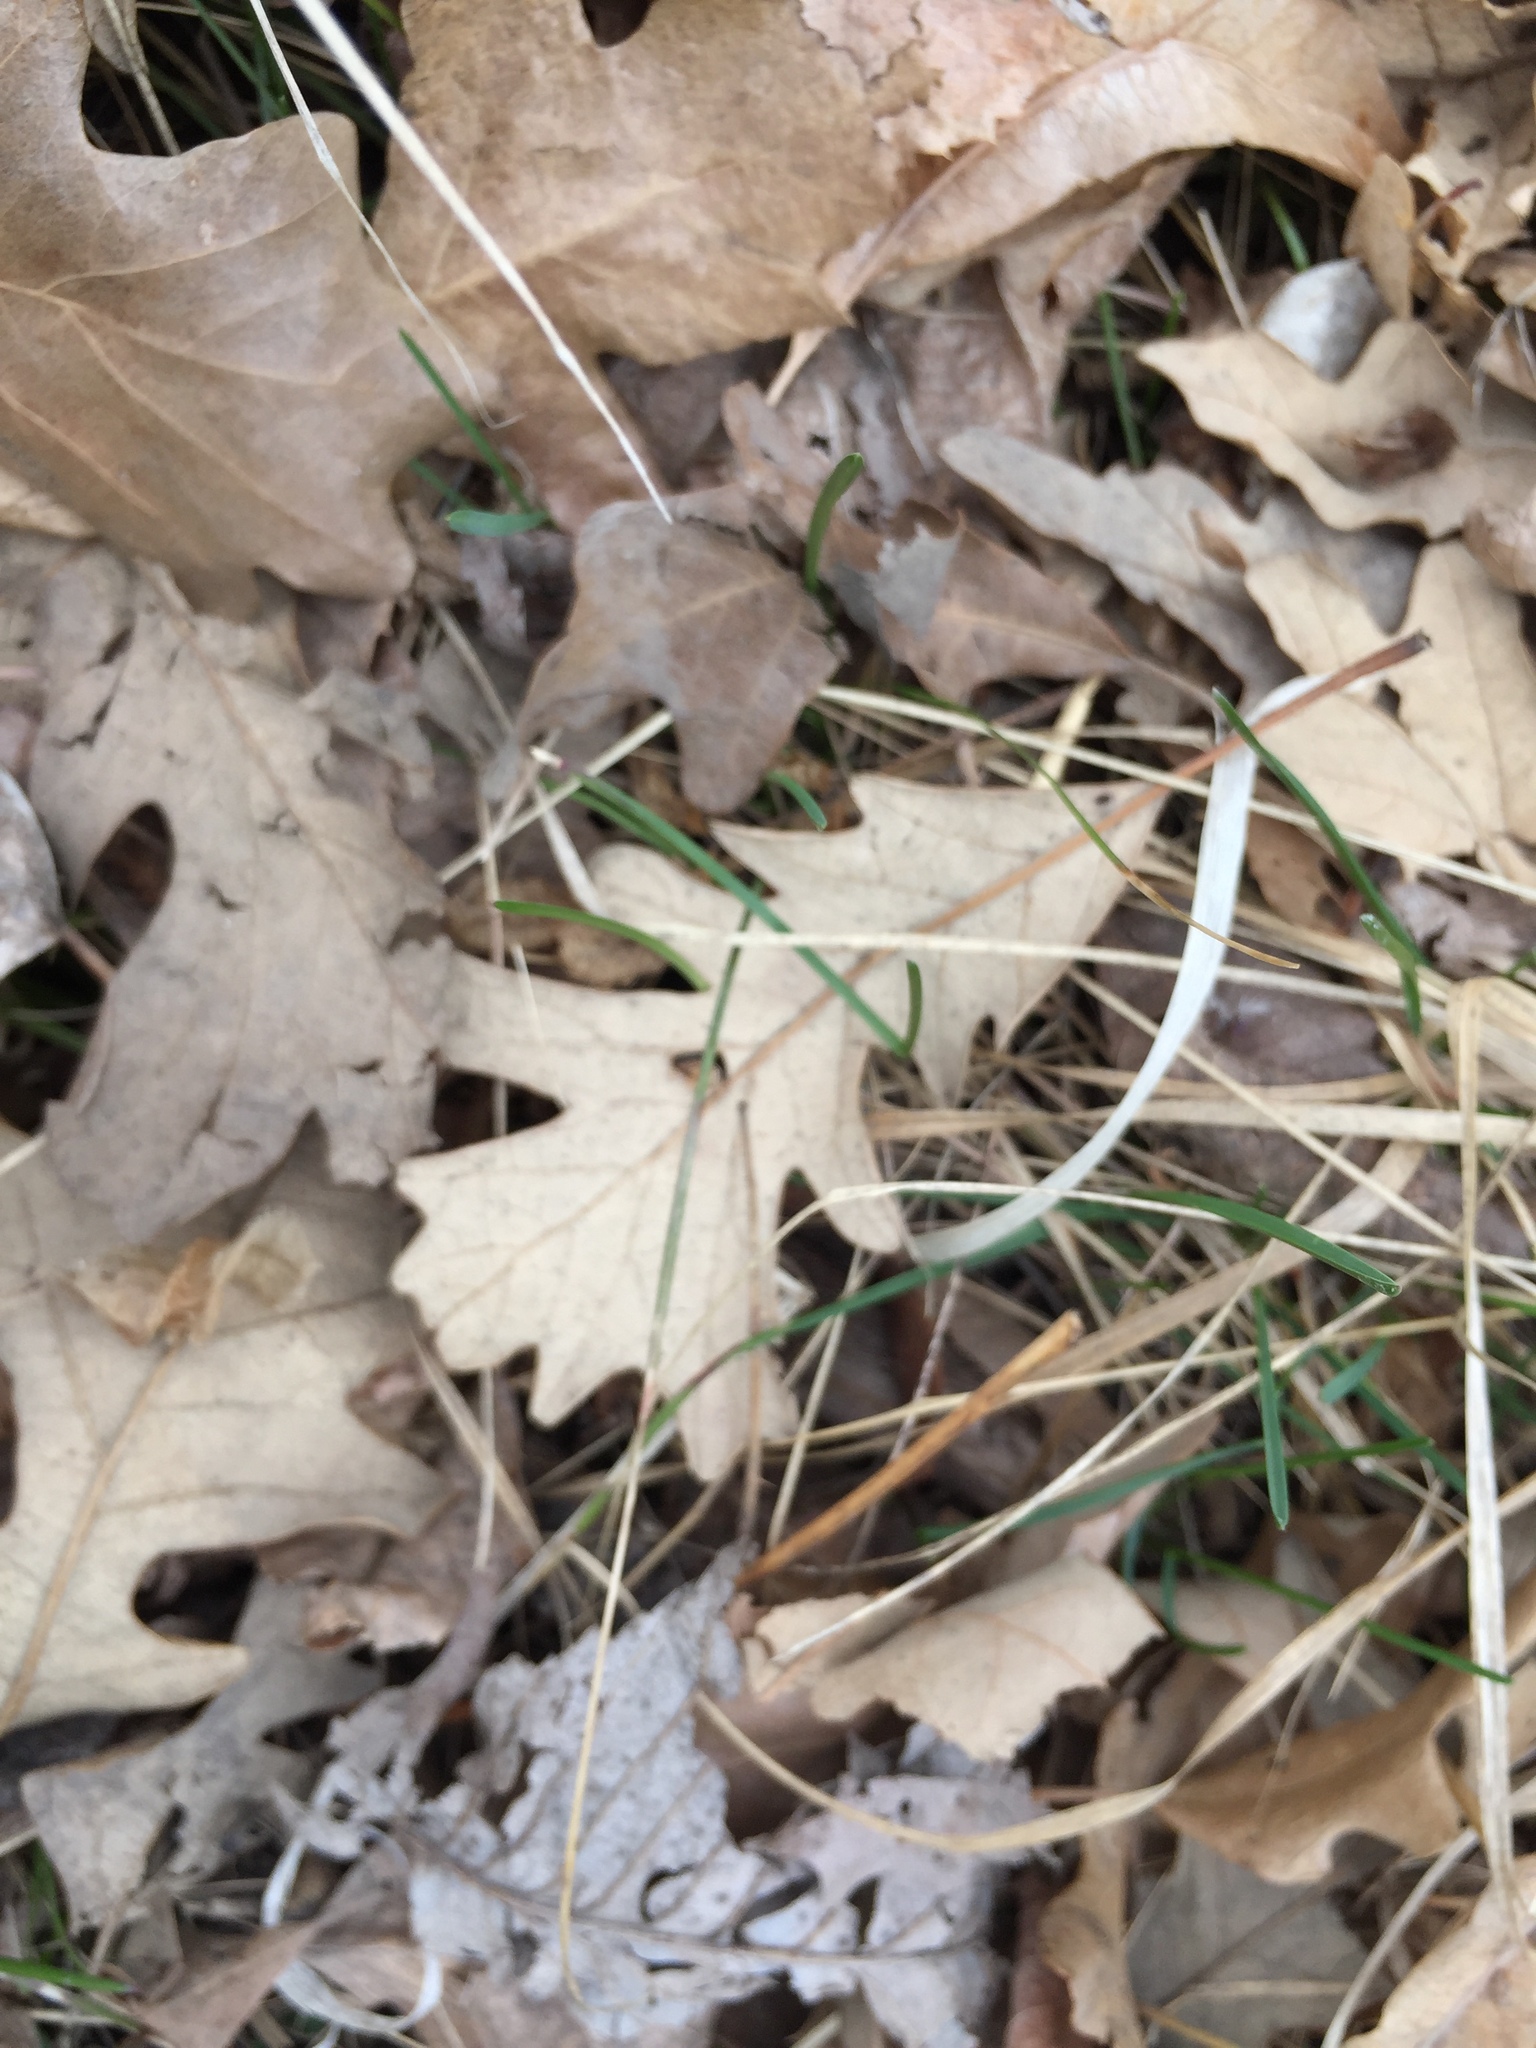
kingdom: Plantae
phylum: Tracheophyta
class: Magnoliopsida
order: Fagales
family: Fagaceae
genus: Quercus
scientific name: Quercus macrocarpa
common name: Bur oak
